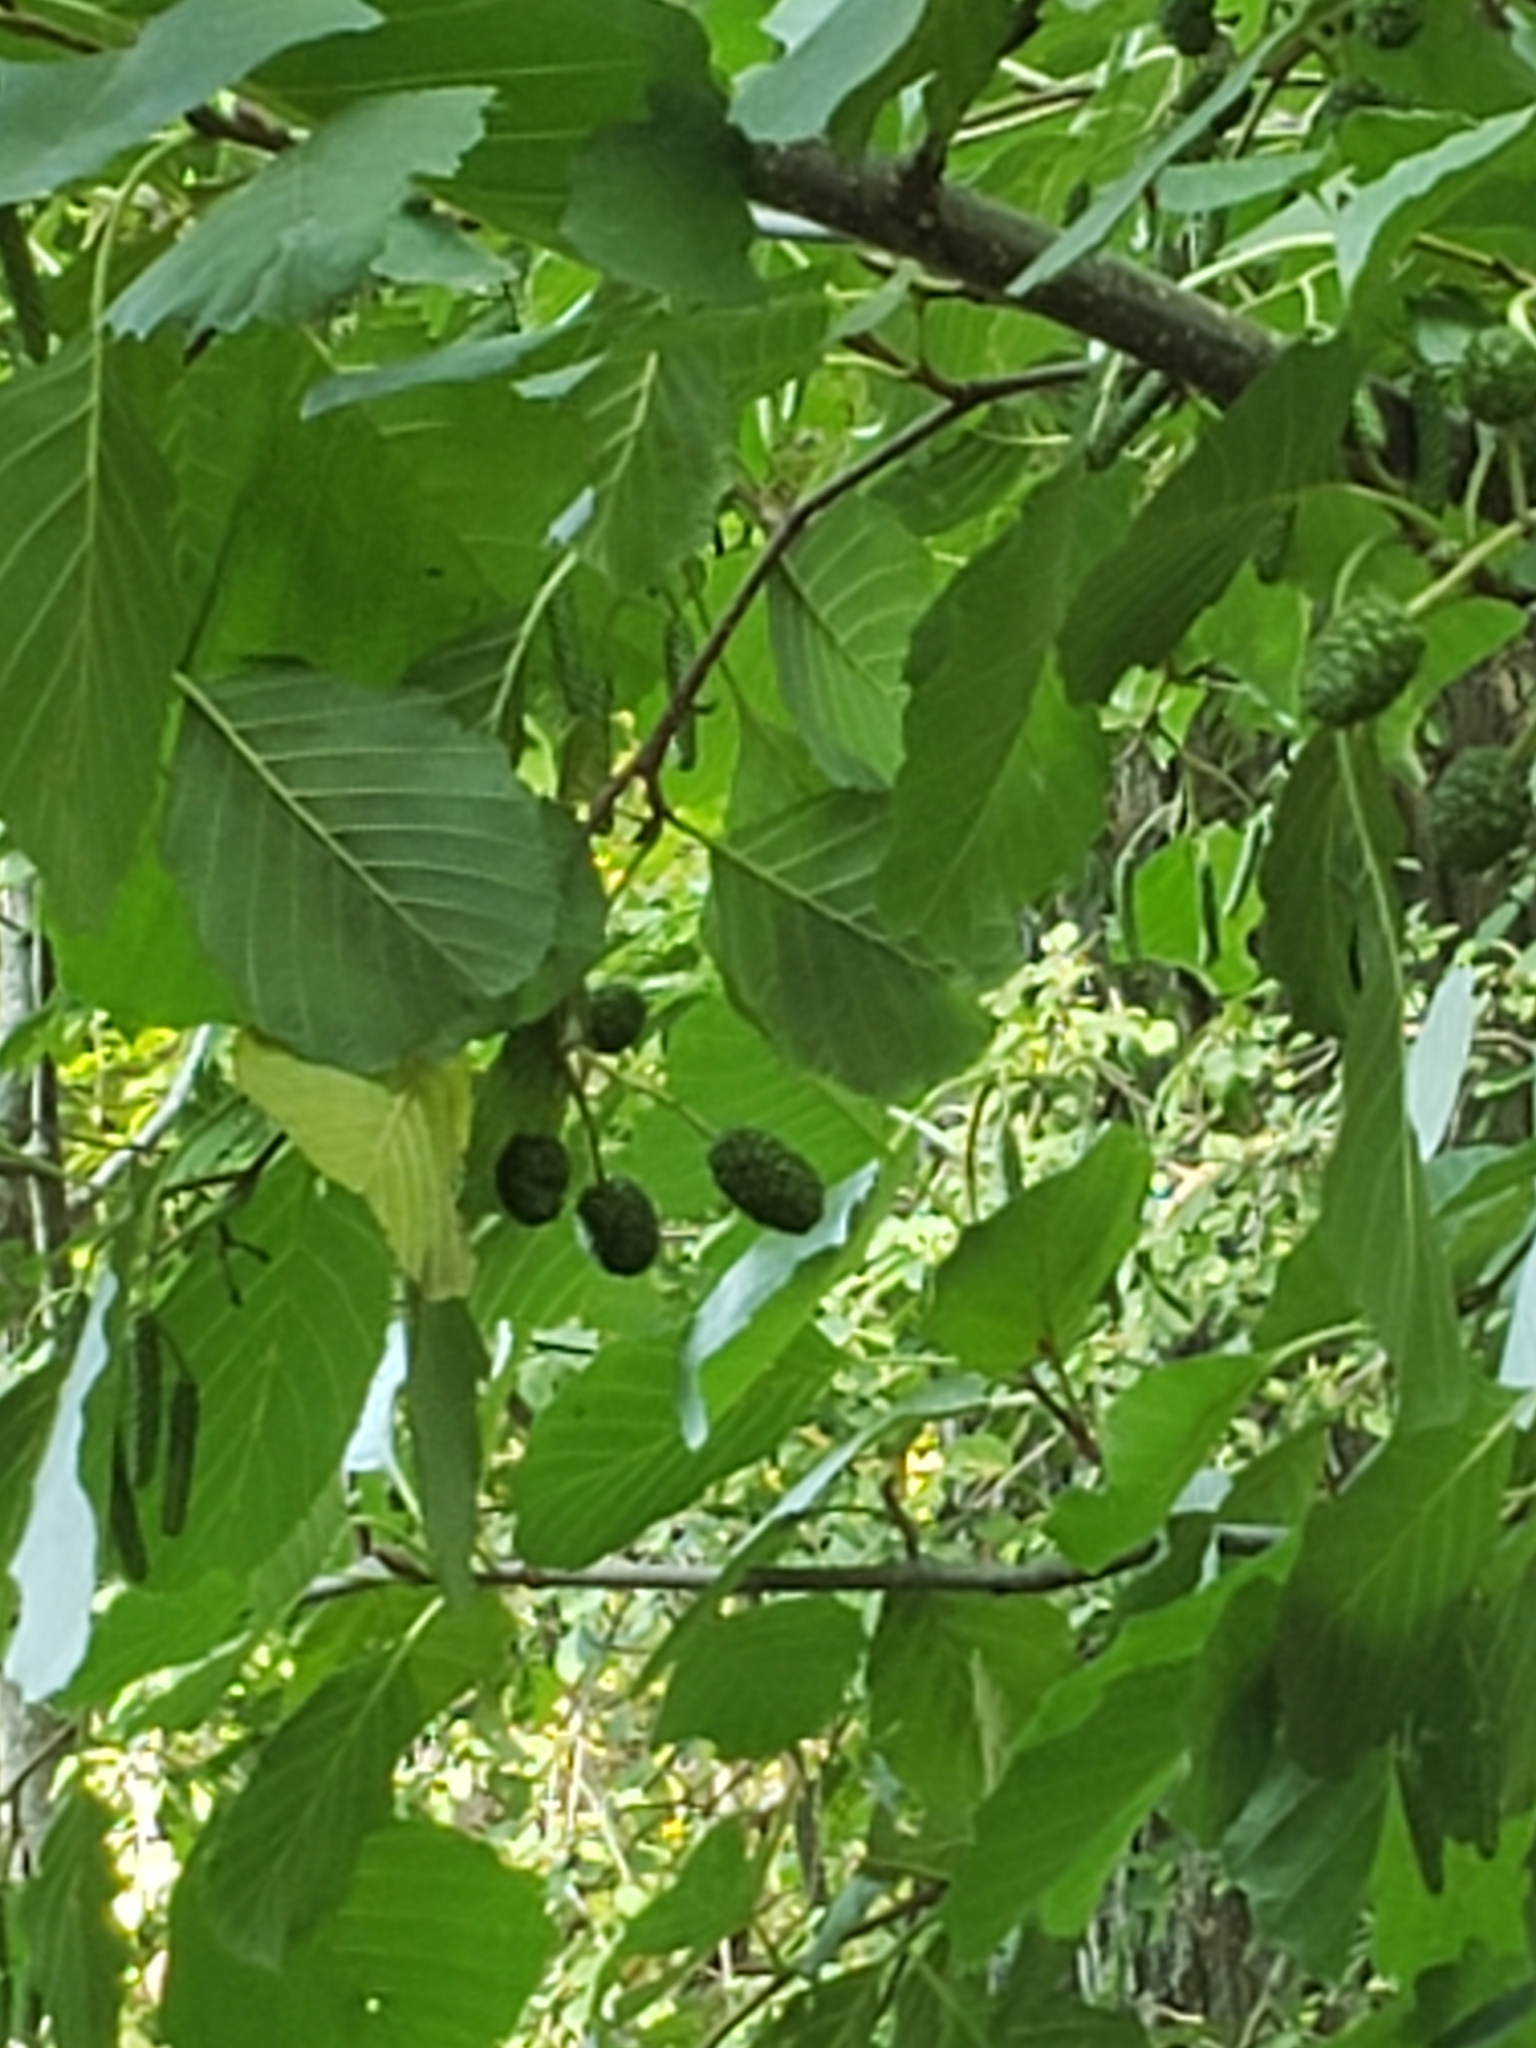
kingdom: Plantae
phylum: Tracheophyta
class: Magnoliopsida
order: Fagales
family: Betulaceae
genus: Alnus
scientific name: Alnus glutinosa
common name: Black alder
